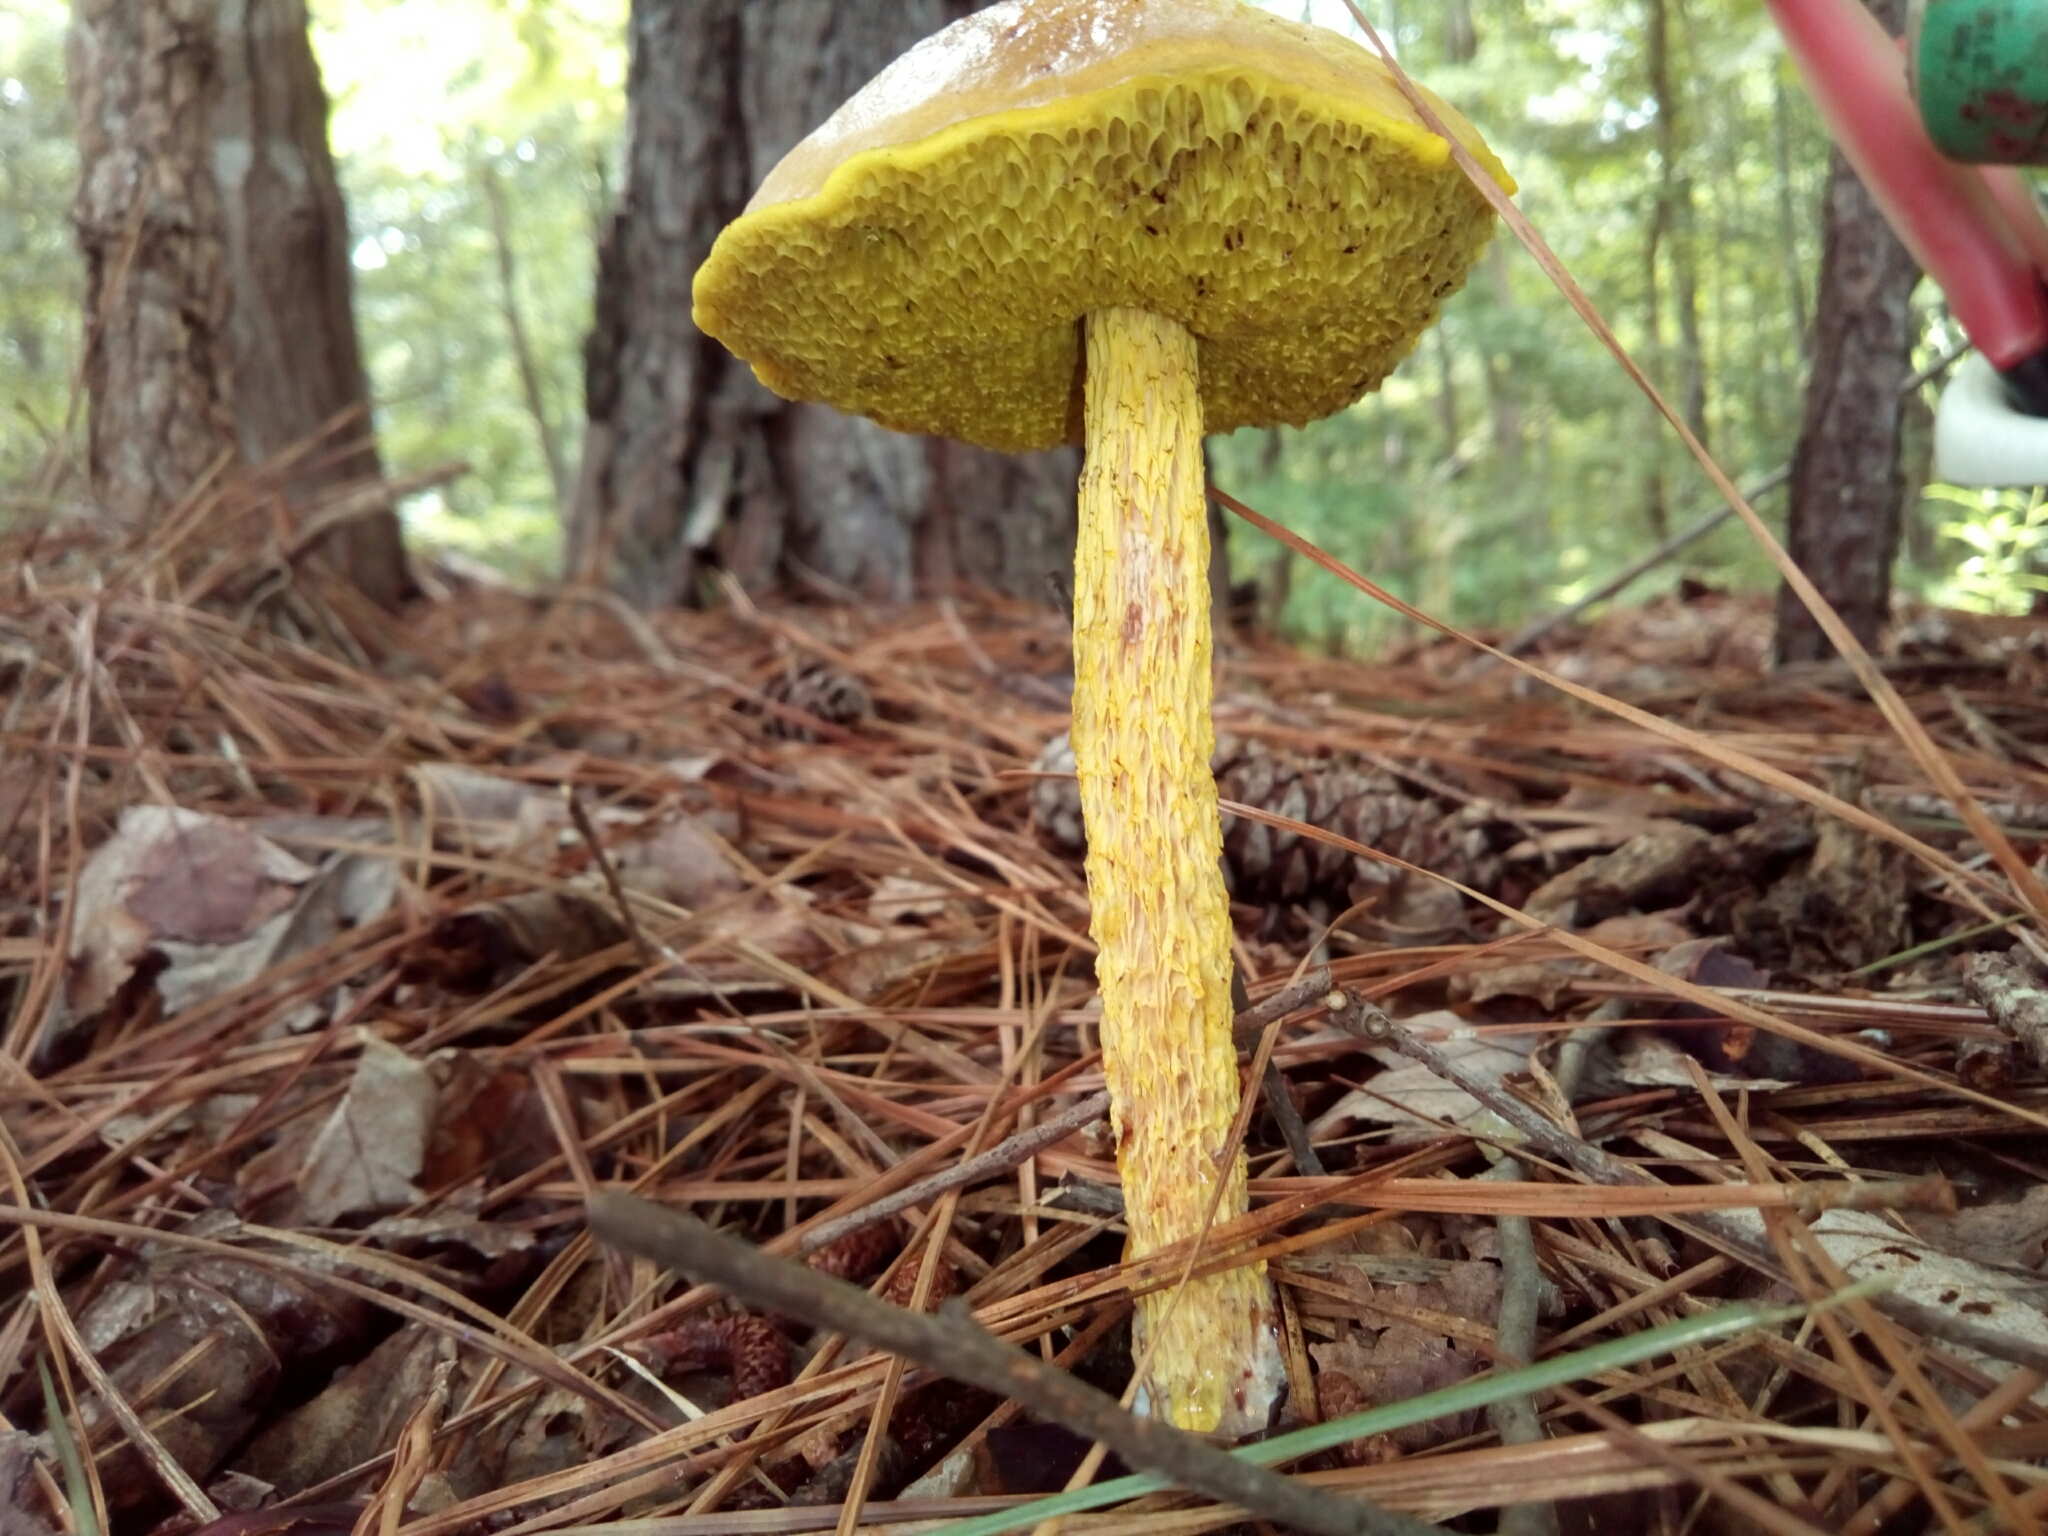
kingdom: Fungi
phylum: Basidiomycota
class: Agaricomycetes
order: Boletales
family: Boletaceae
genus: Aureoboletus
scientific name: Aureoboletus betula
